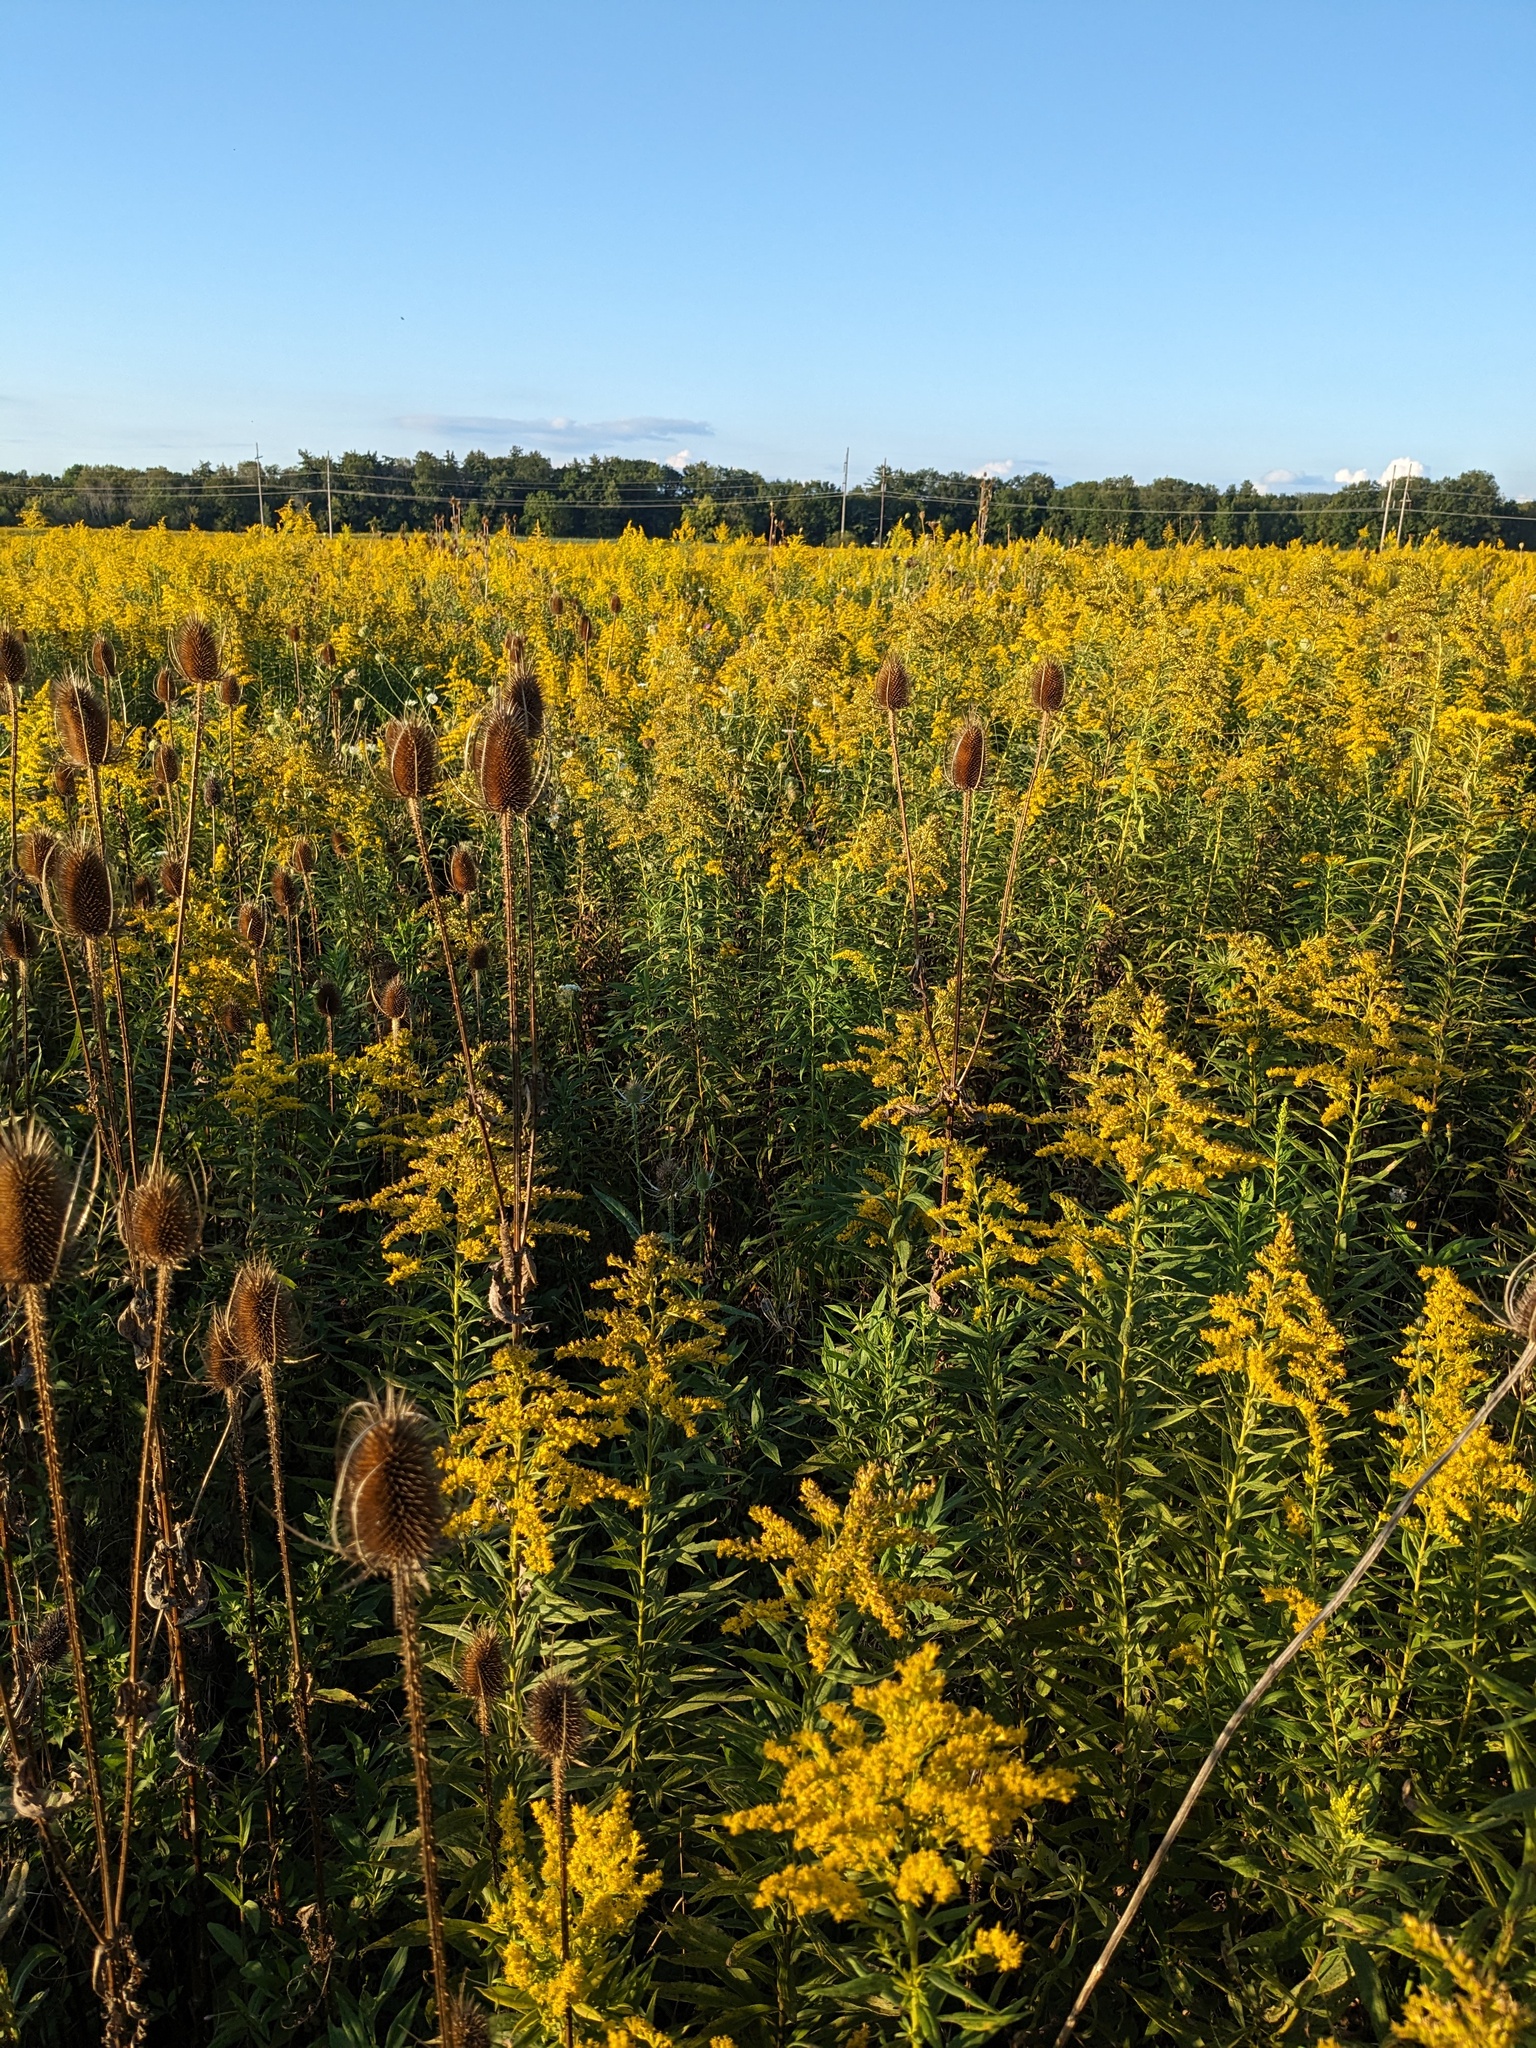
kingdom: Plantae
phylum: Tracheophyta
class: Magnoliopsida
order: Dipsacales
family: Caprifoliaceae
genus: Dipsacus
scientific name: Dipsacus fullonum
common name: Teasel
